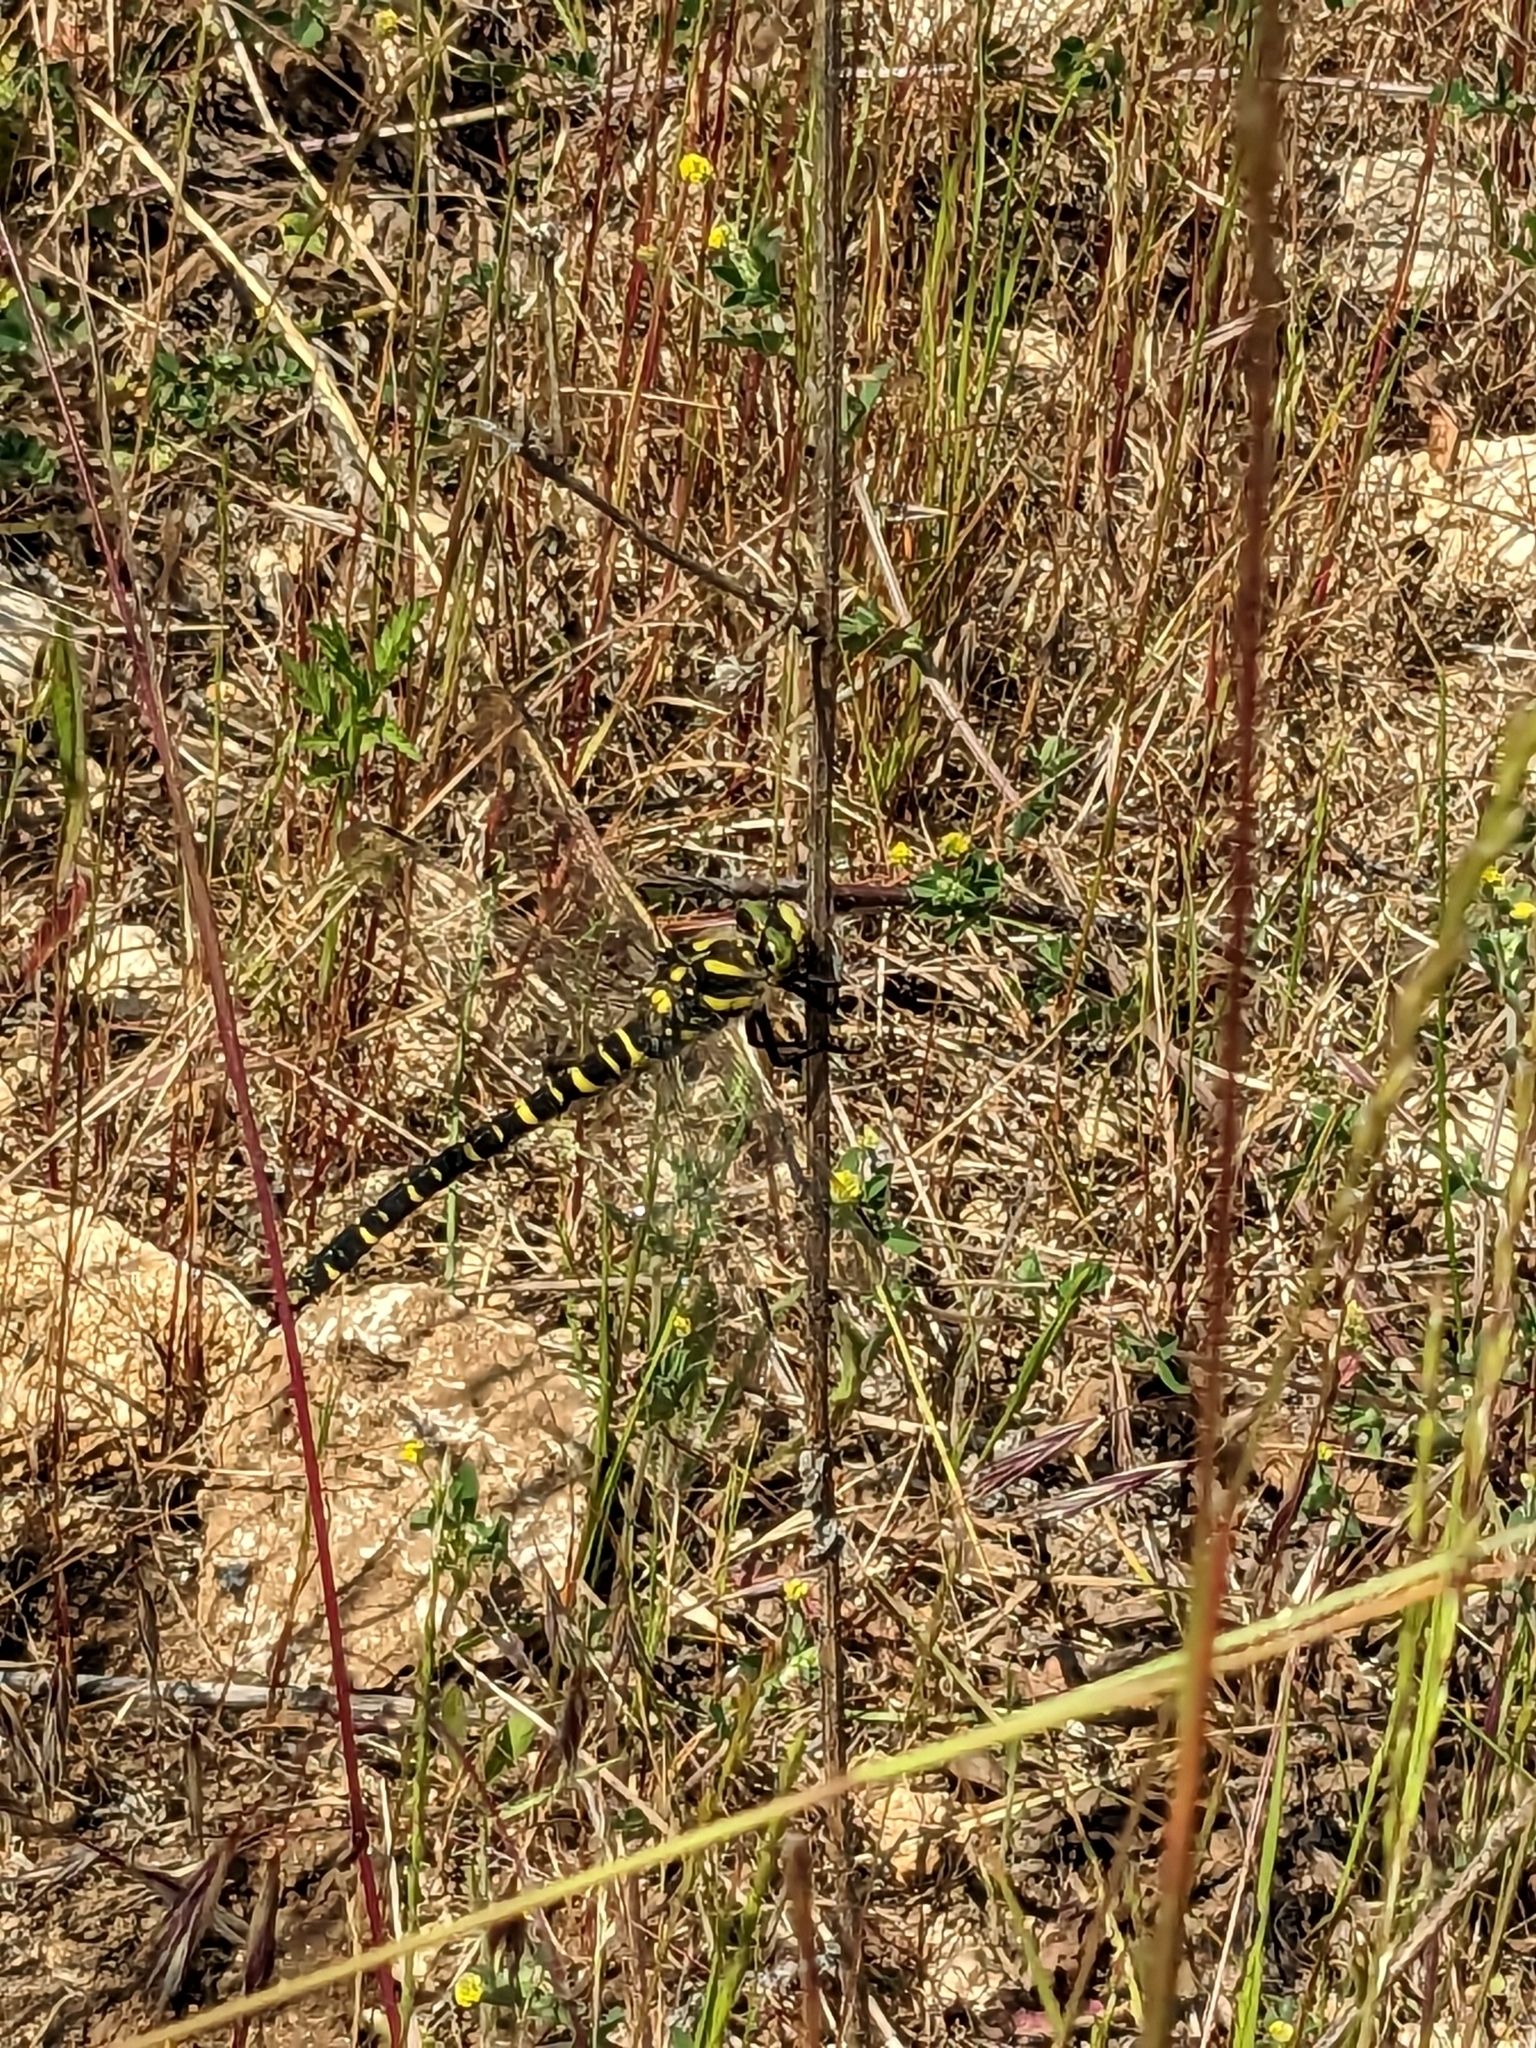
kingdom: Animalia
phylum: Arthropoda
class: Insecta
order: Odonata
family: Cordulegastridae
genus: Cordulegaster
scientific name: Cordulegaster boltonii
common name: Golden-ringed dragonfly
